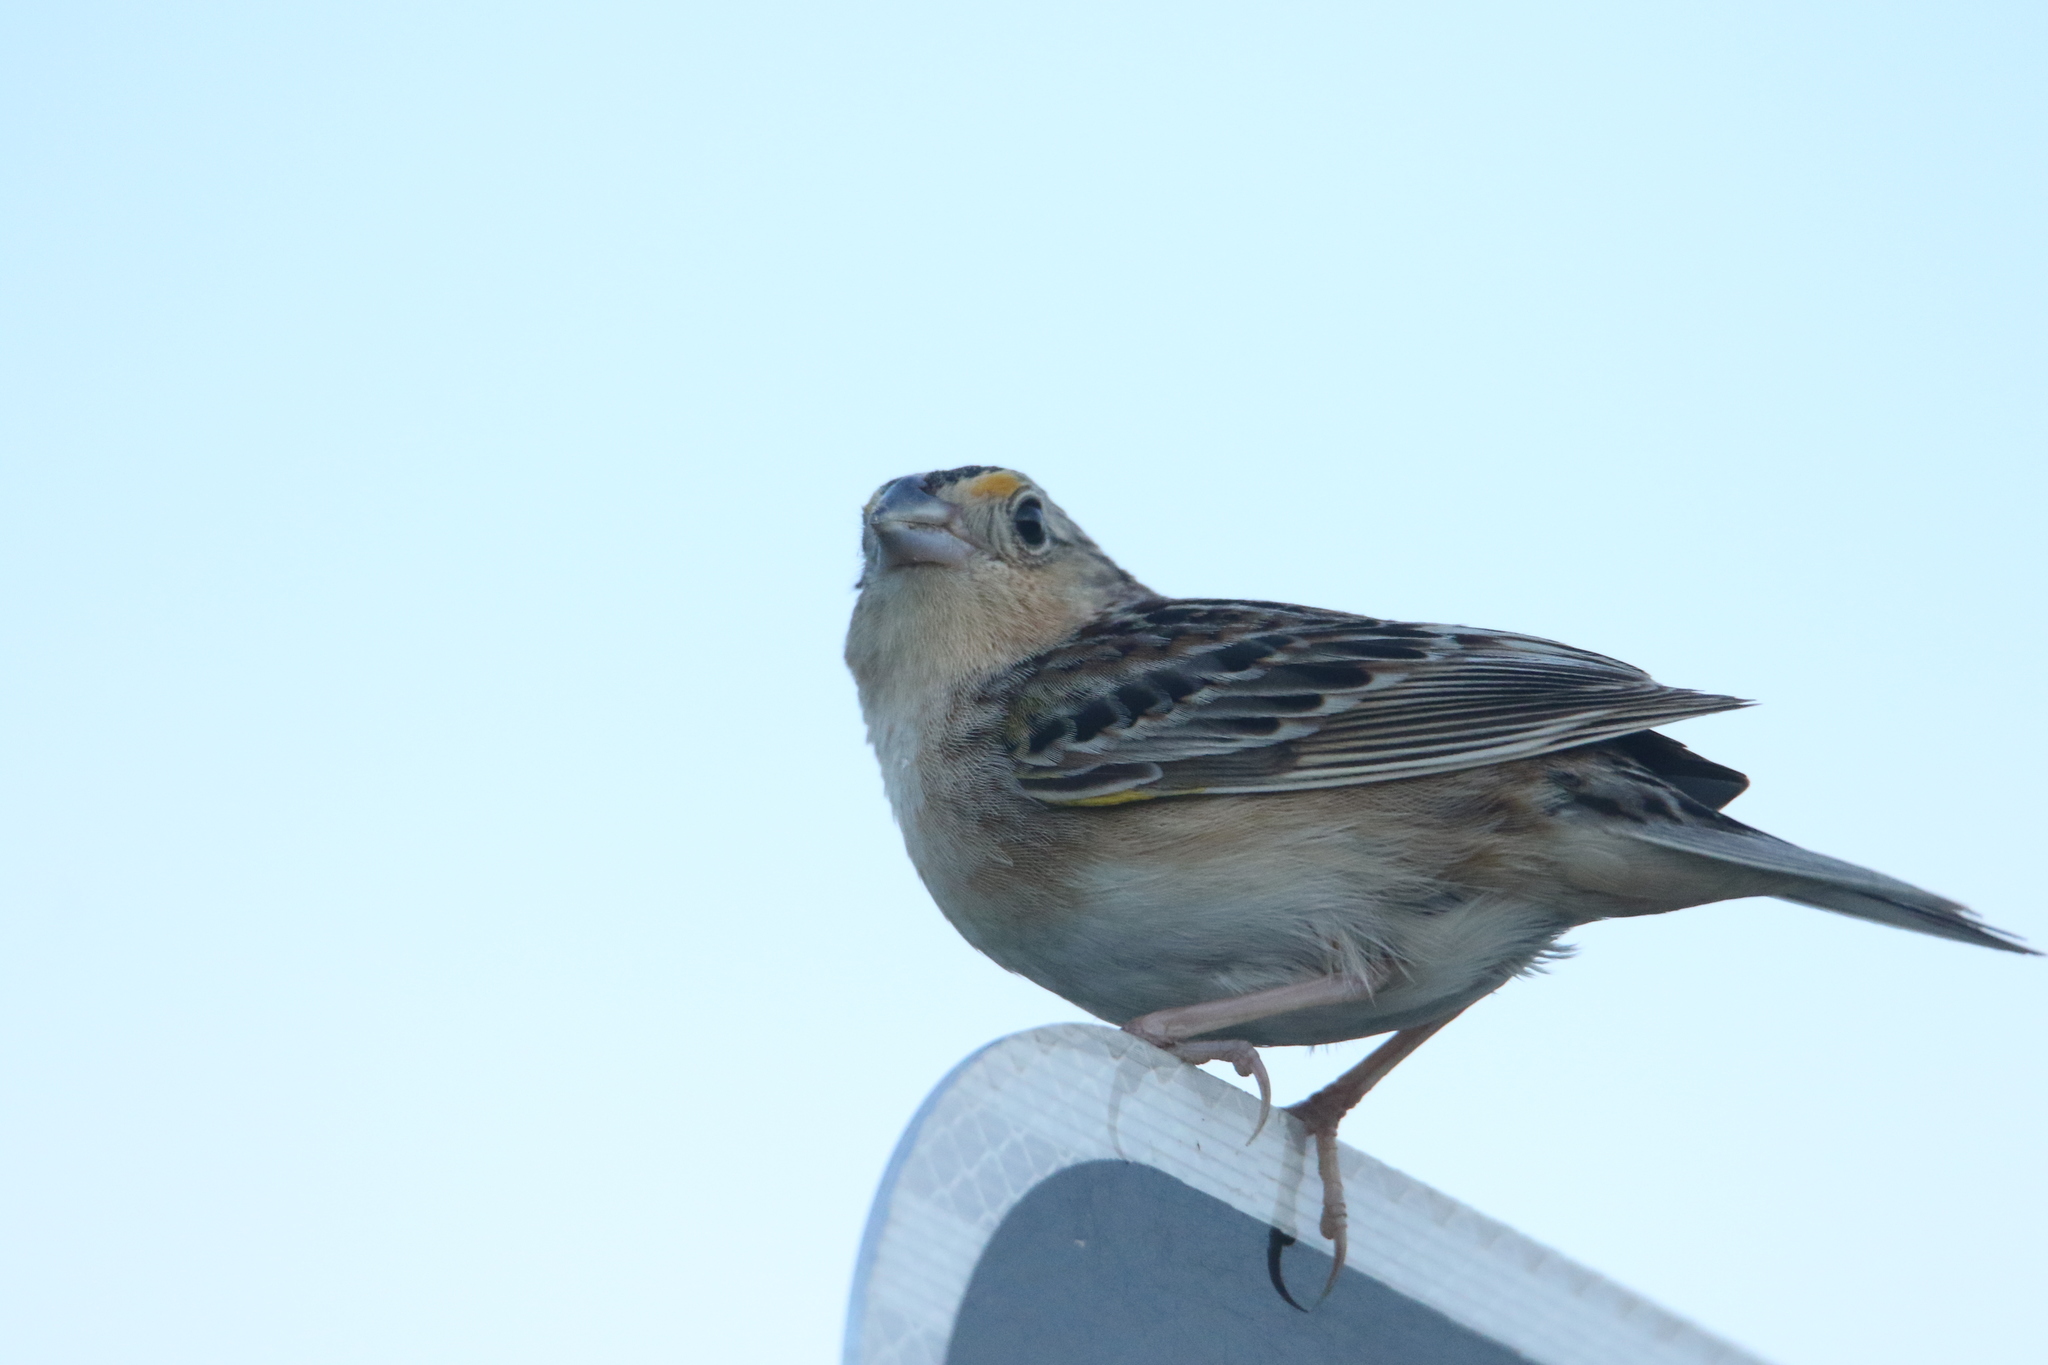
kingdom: Animalia
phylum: Chordata
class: Aves
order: Passeriformes
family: Passerellidae
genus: Ammodramus
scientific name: Ammodramus savannarum
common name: Grasshopper sparrow
